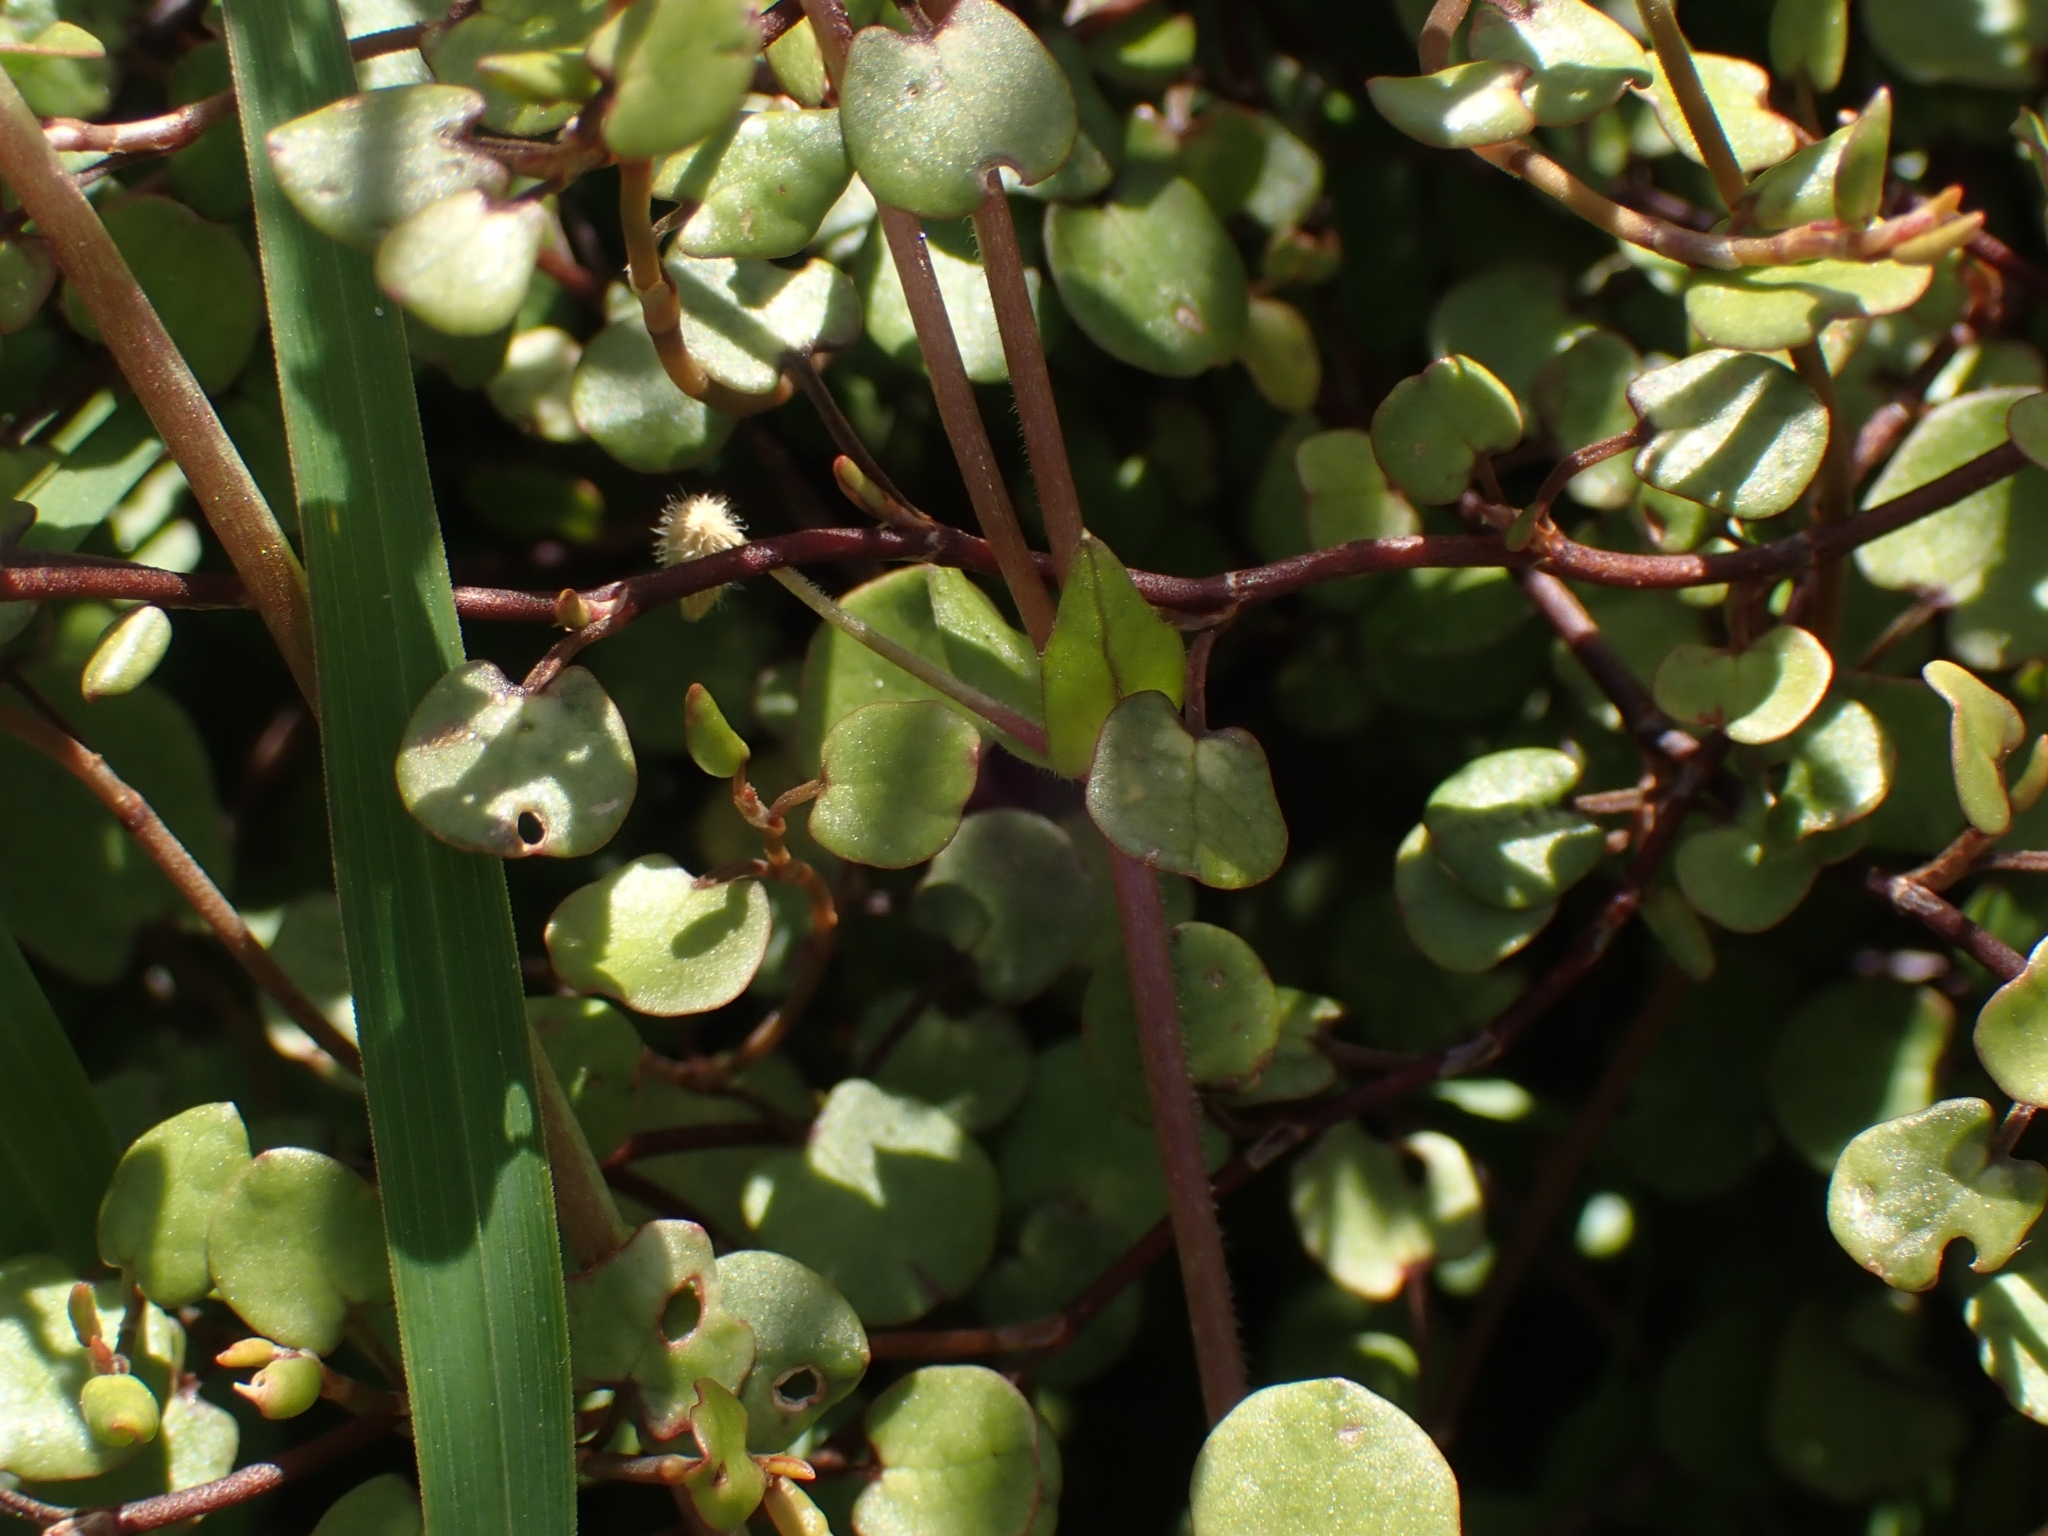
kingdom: Plantae
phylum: Tracheophyta
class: Magnoliopsida
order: Caryophyllales
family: Polygonaceae
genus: Muehlenbeckia
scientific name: Muehlenbeckia complexa
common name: Wireplant
